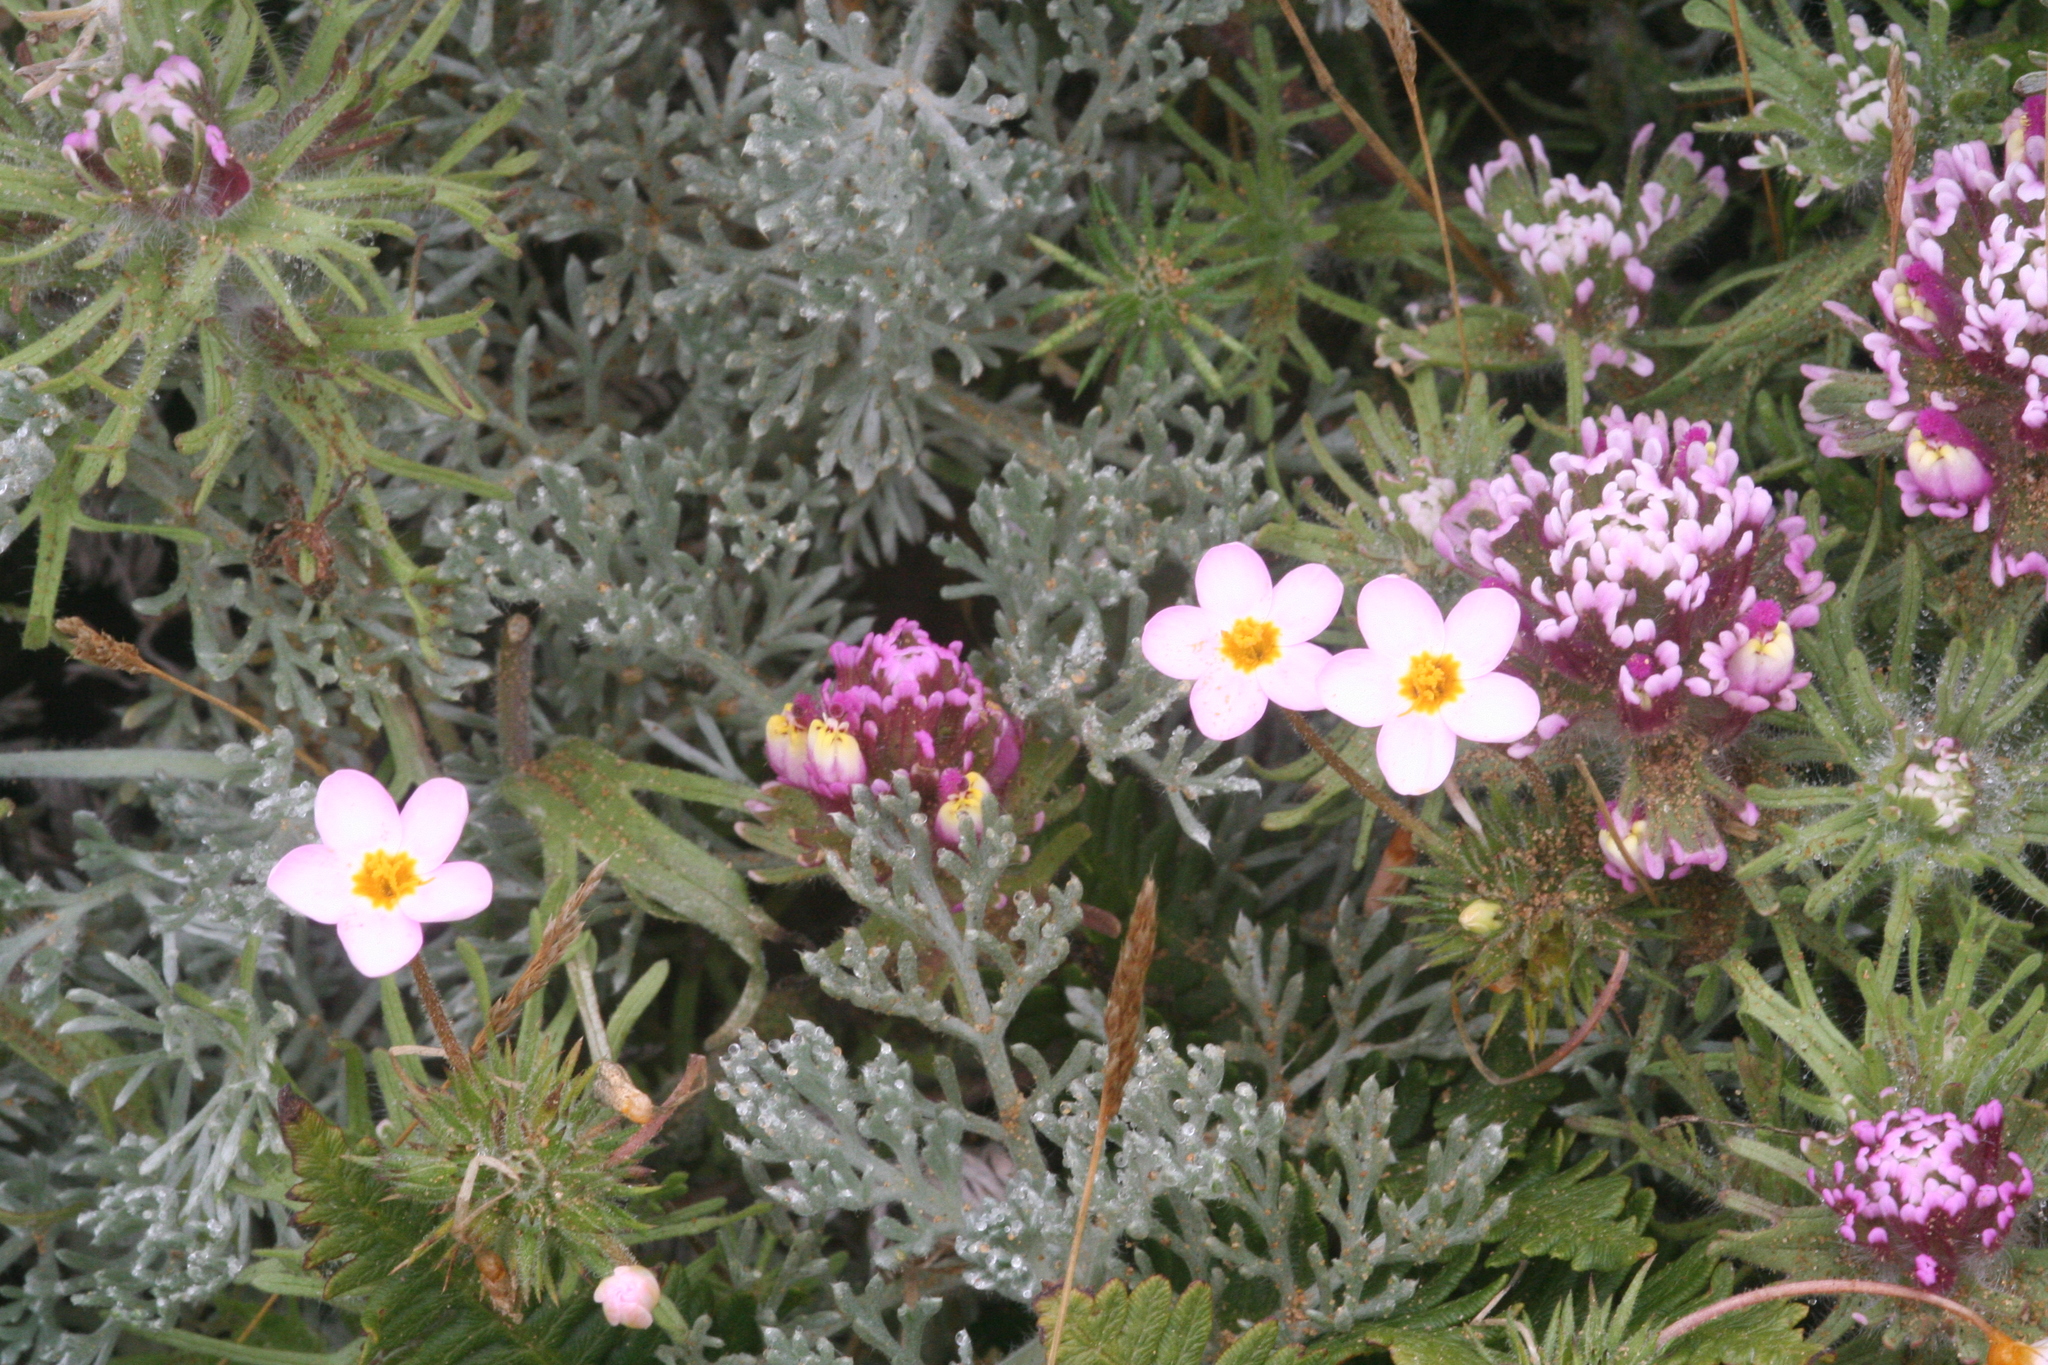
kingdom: Plantae
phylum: Tracheophyta
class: Magnoliopsida
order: Ericales
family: Polemoniaceae
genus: Leptosiphon
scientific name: Leptosiphon parviflorus
